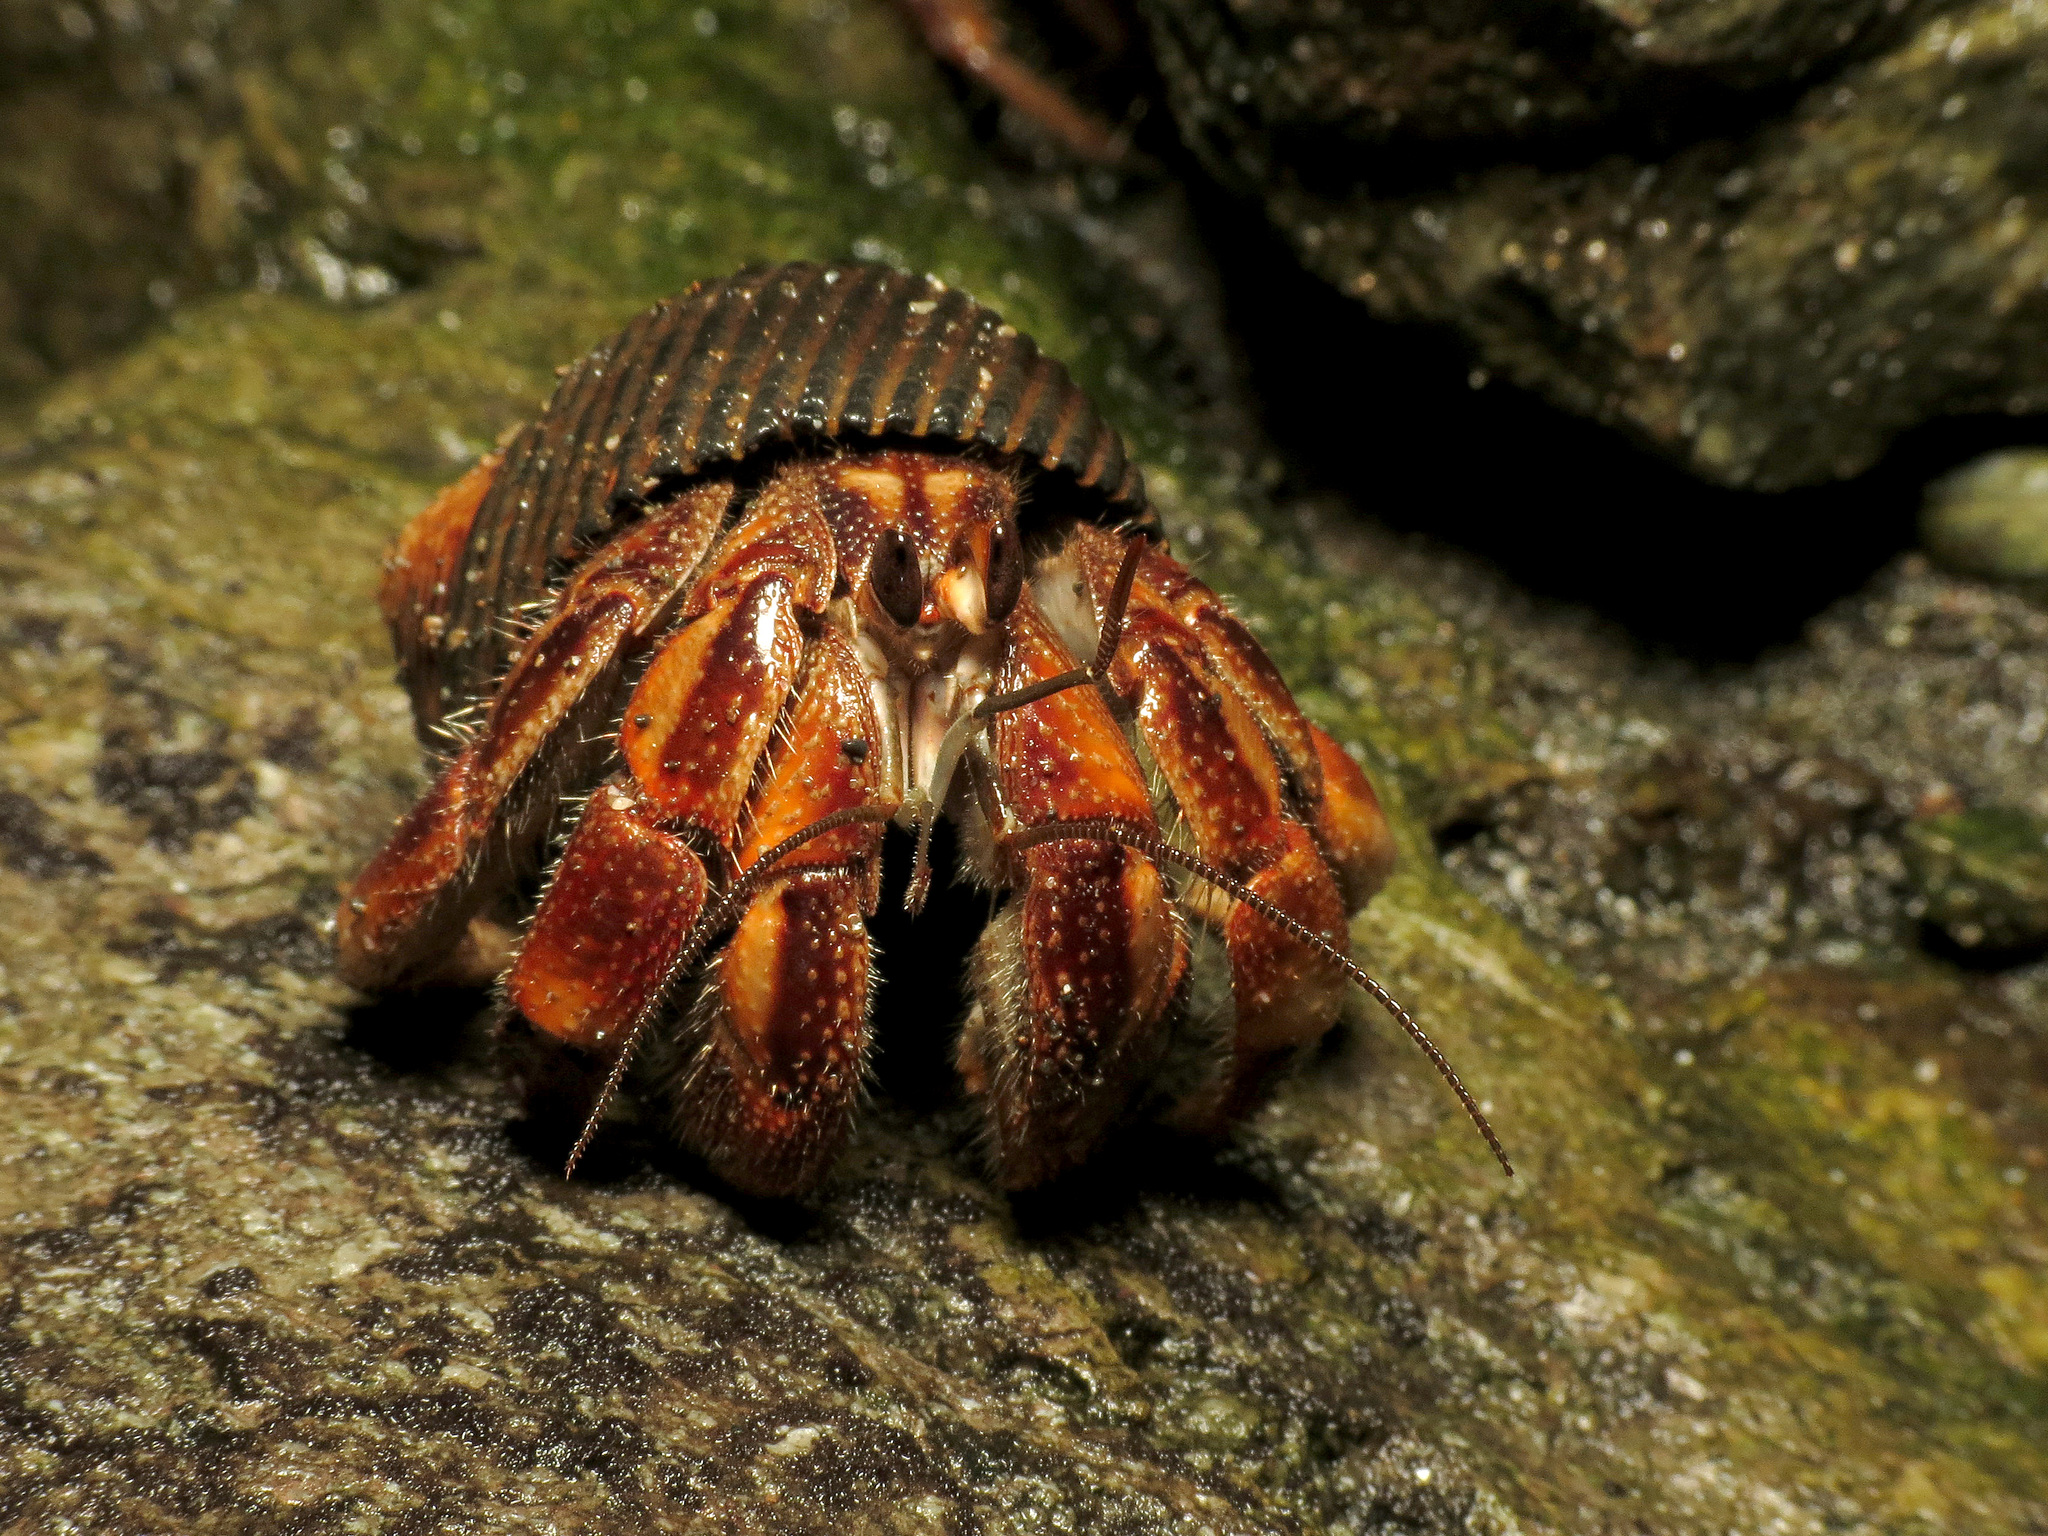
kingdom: Animalia
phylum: Arthropoda
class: Malacostraca
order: Decapoda
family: Coenobitidae
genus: Coenobita
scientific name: Coenobita compressus
